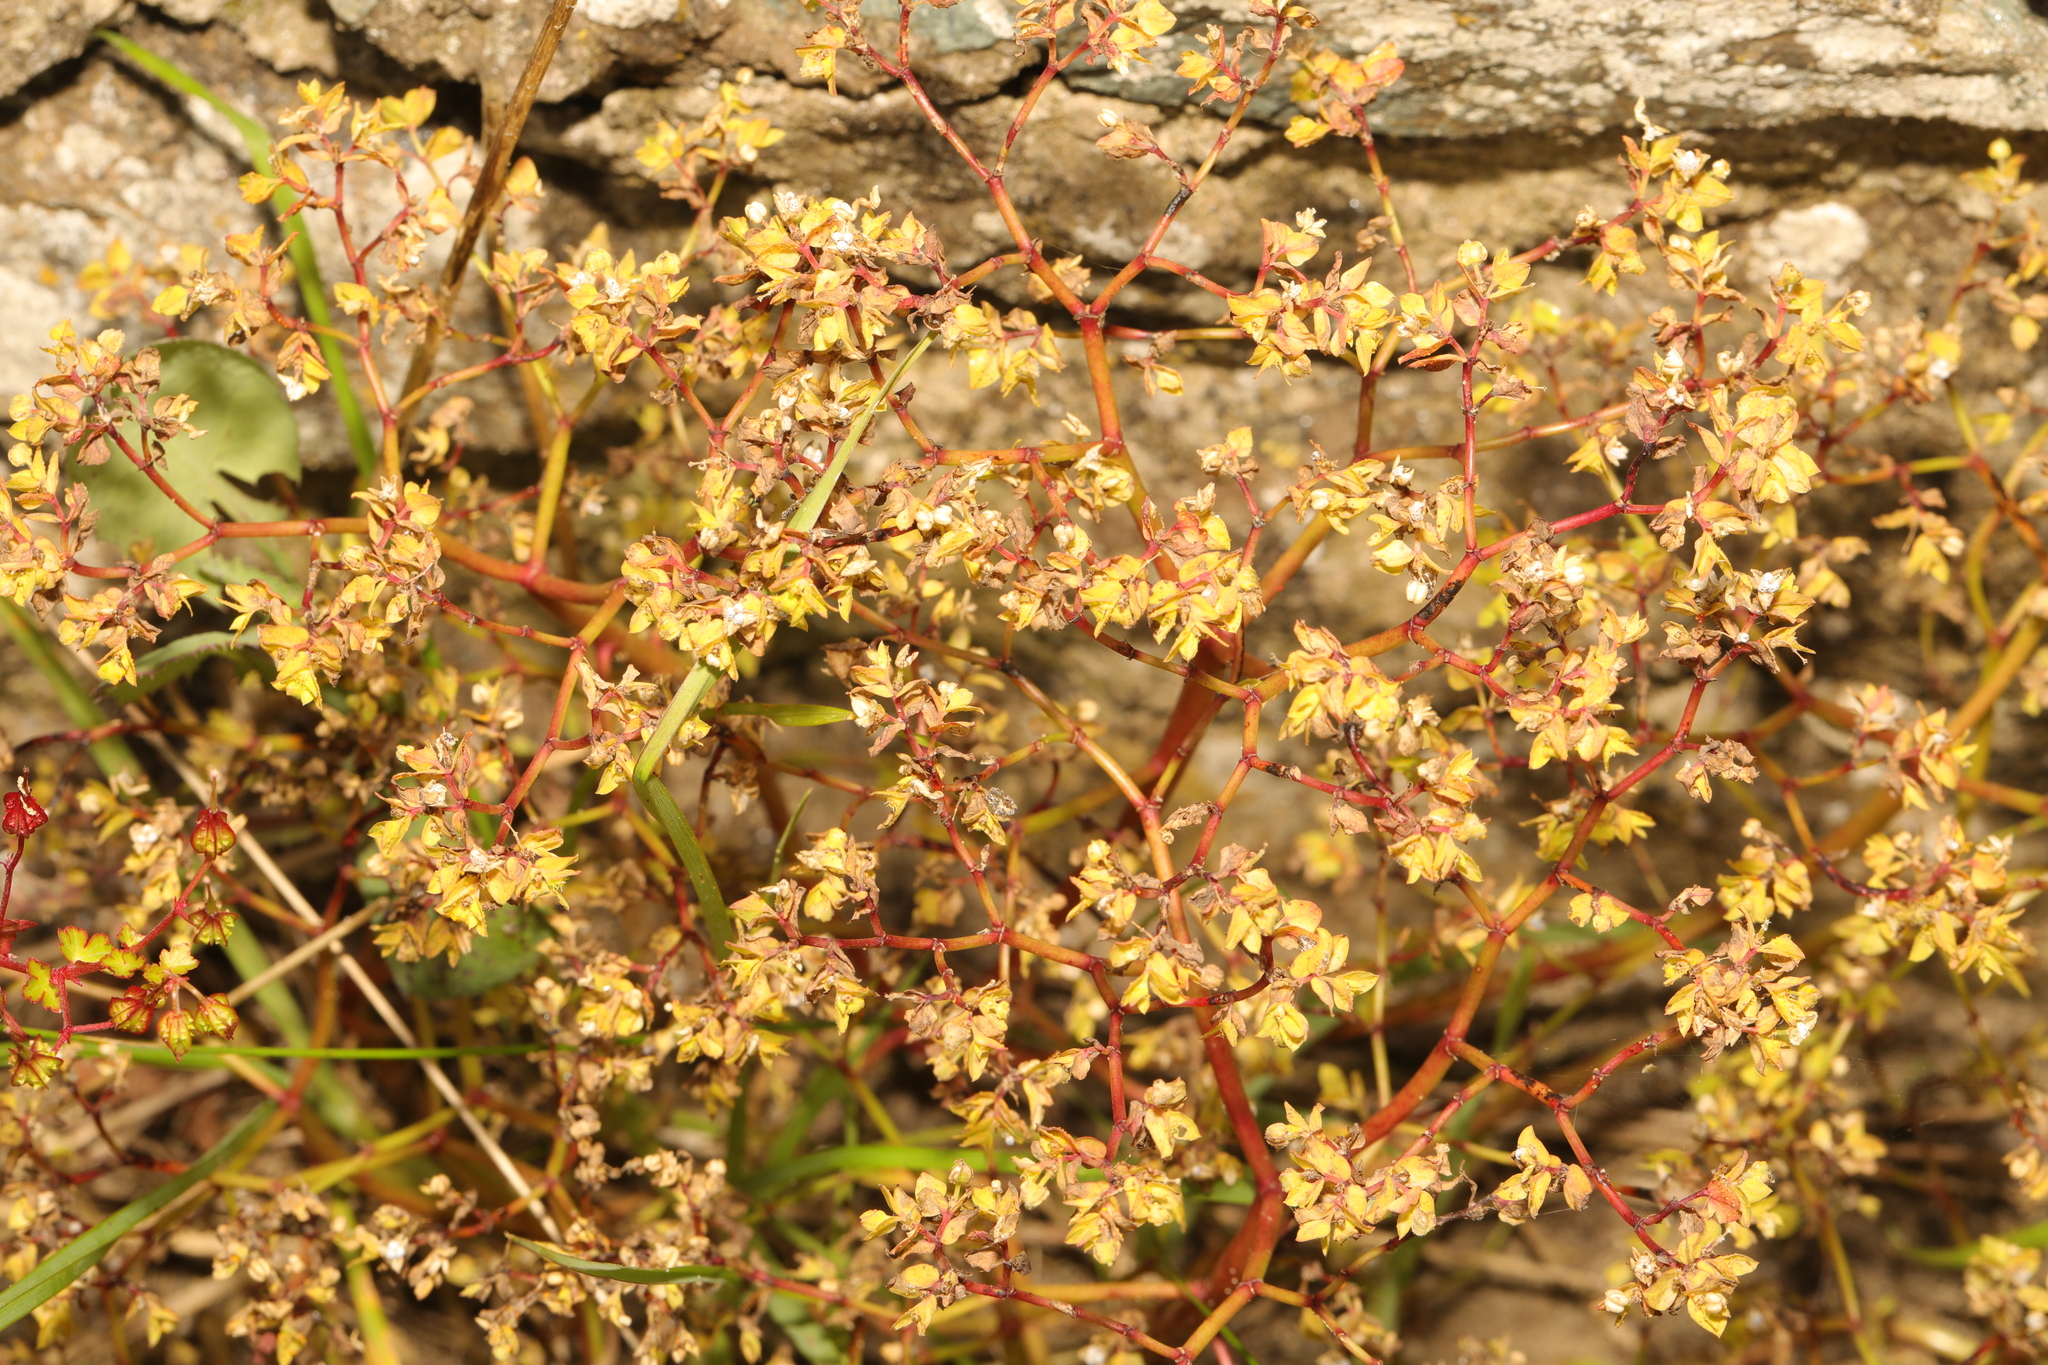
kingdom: Plantae
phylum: Tracheophyta
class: Magnoliopsida
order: Malpighiales
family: Euphorbiaceae
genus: Euphorbia
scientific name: Euphorbia peplus
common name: Petty spurge
